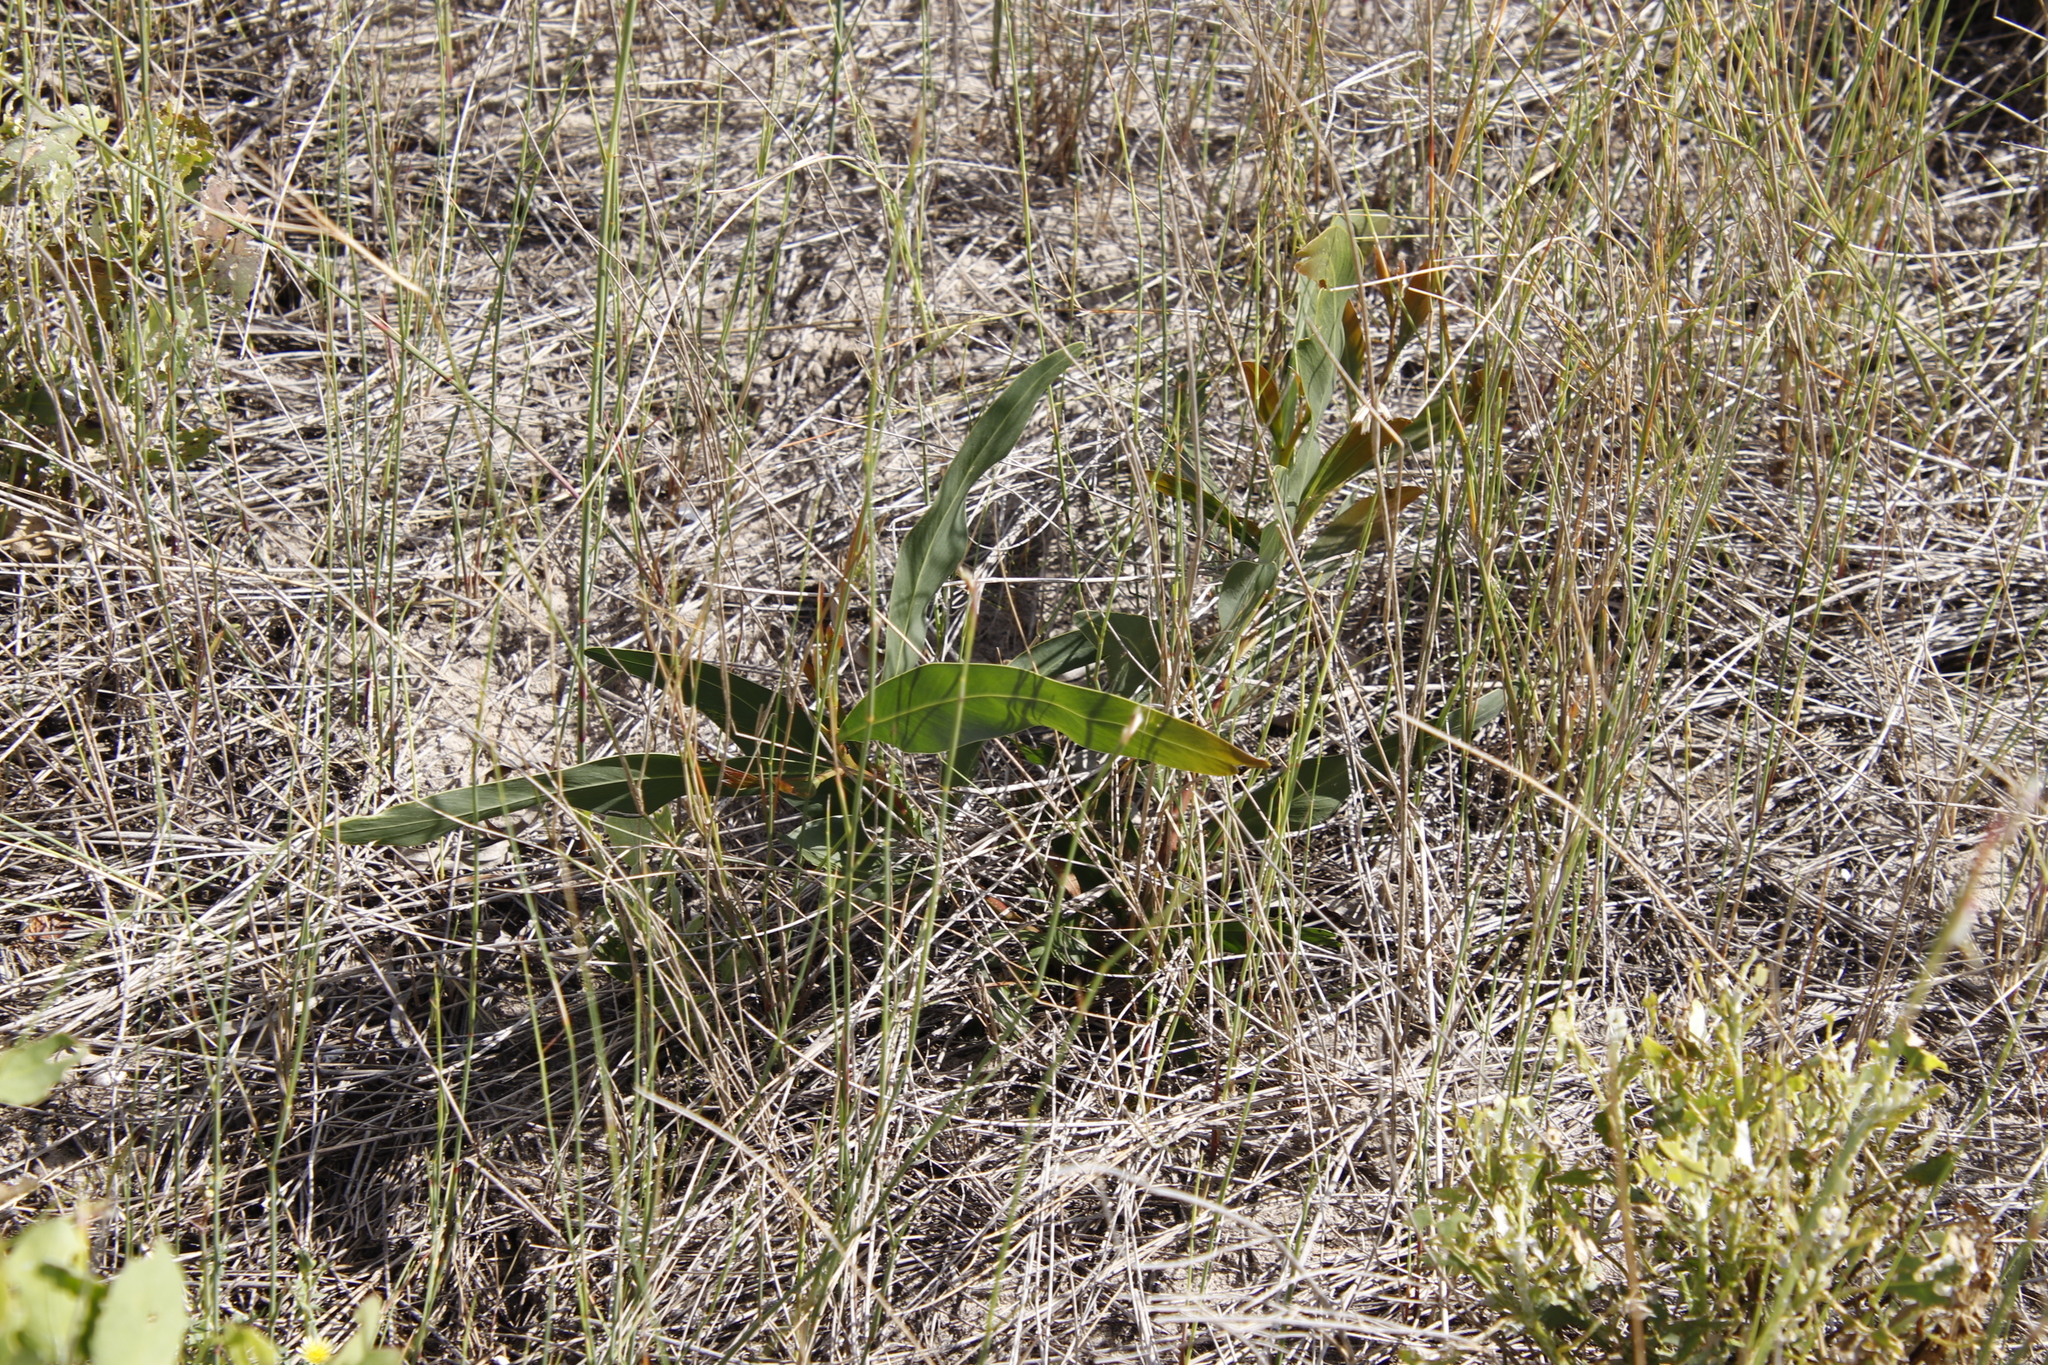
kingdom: Plantae
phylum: Tracheophyta
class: Magnoliopsida
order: Fabales
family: Fabaceae
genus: Acacia
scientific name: Acacia saligna
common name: Orange wattle
